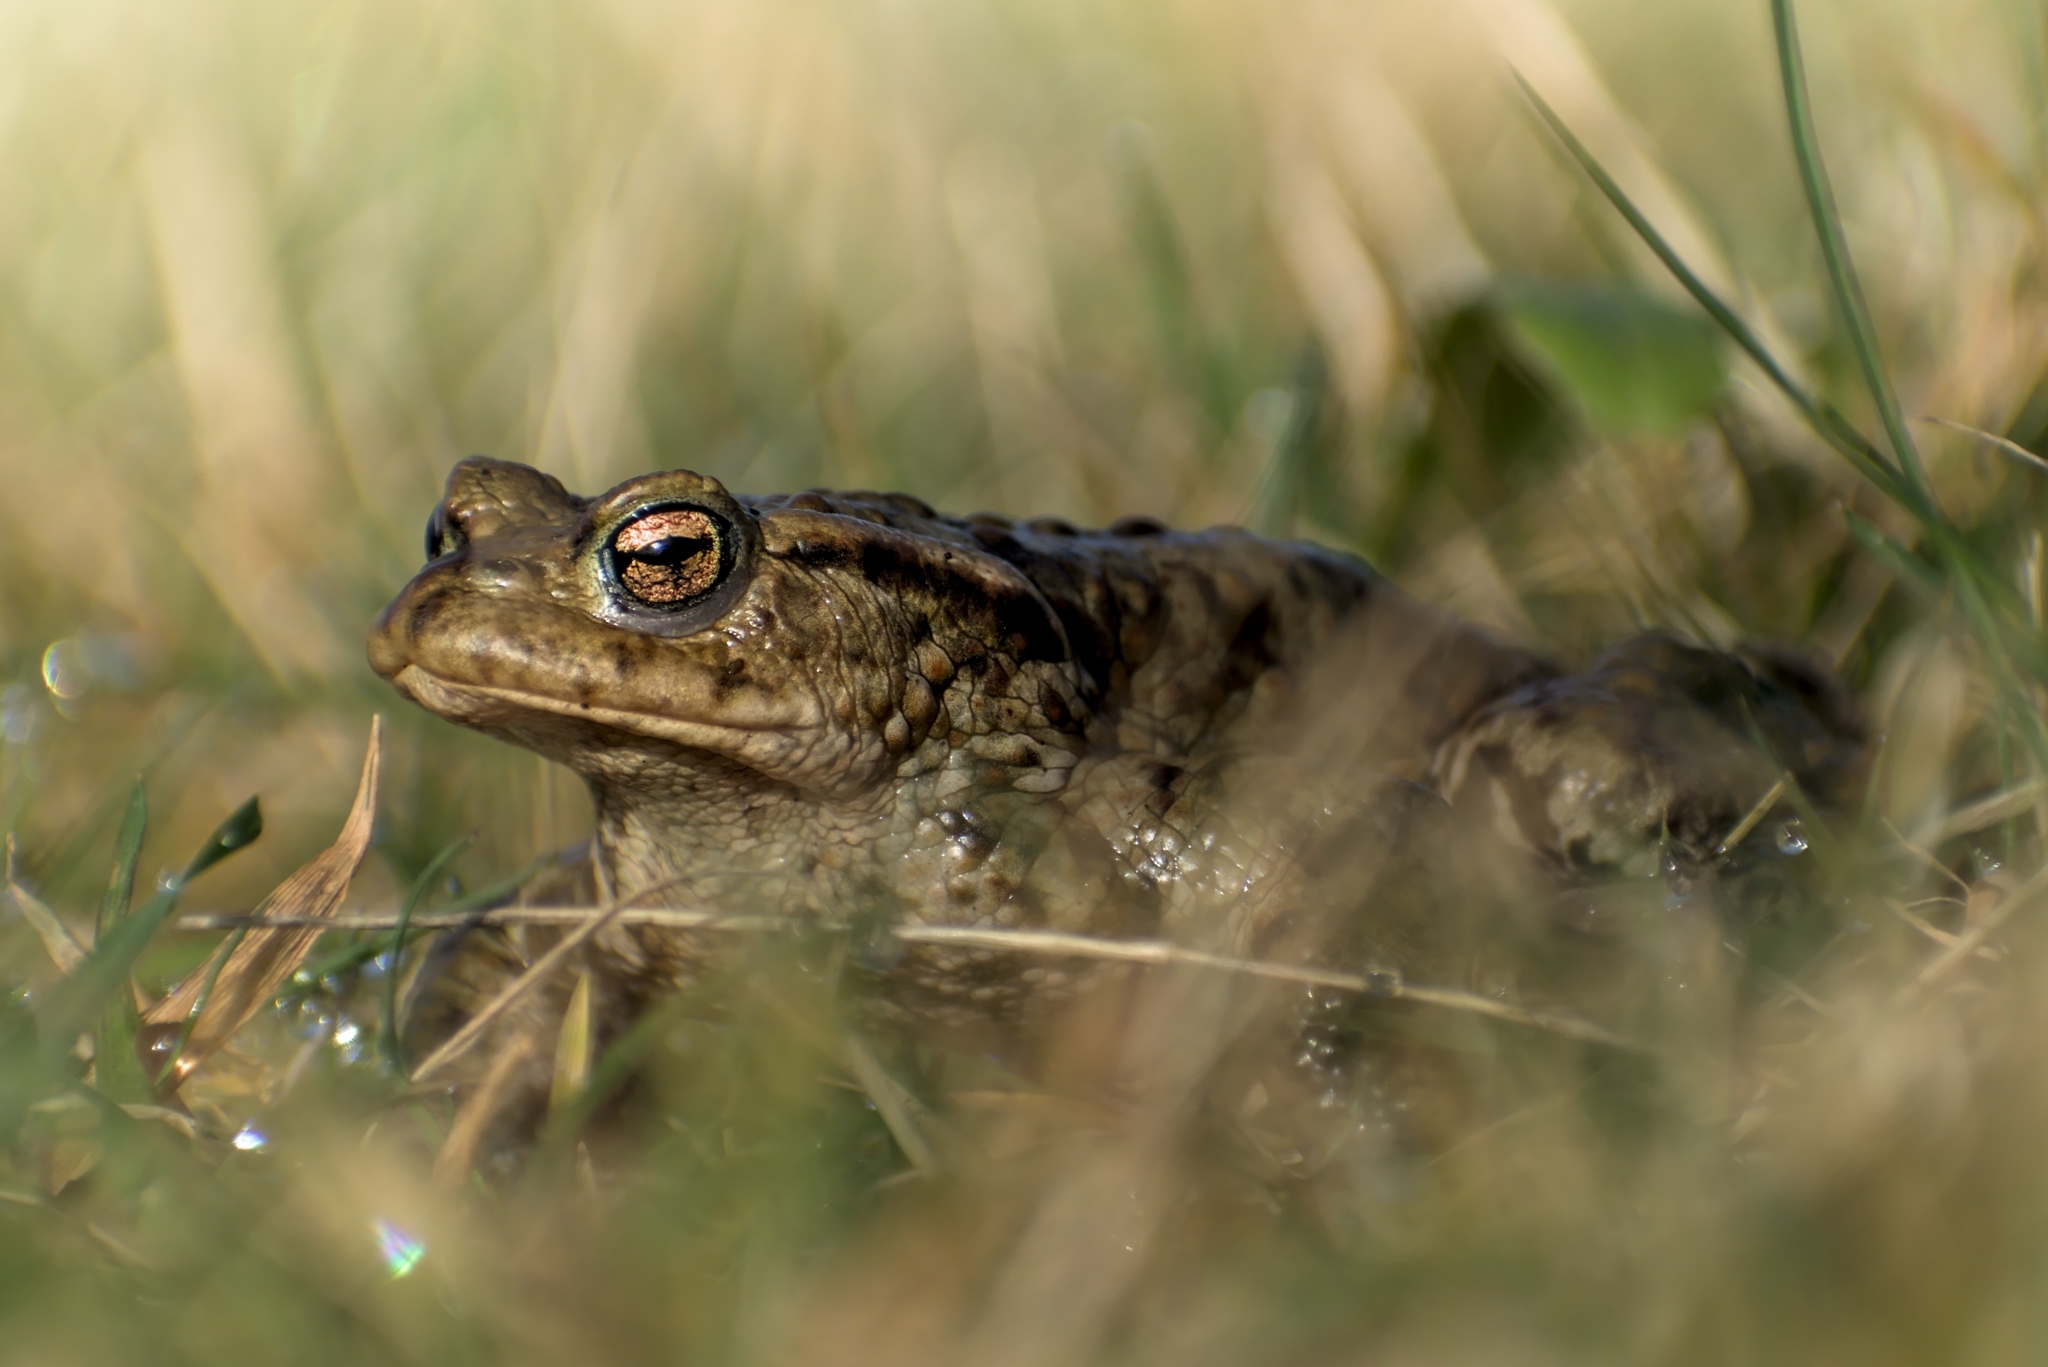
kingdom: Animalia
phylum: Chordata
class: Amphibia
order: Anura
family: Bufonidae
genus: Bufo
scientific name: Bufo bufo
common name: Common toad
